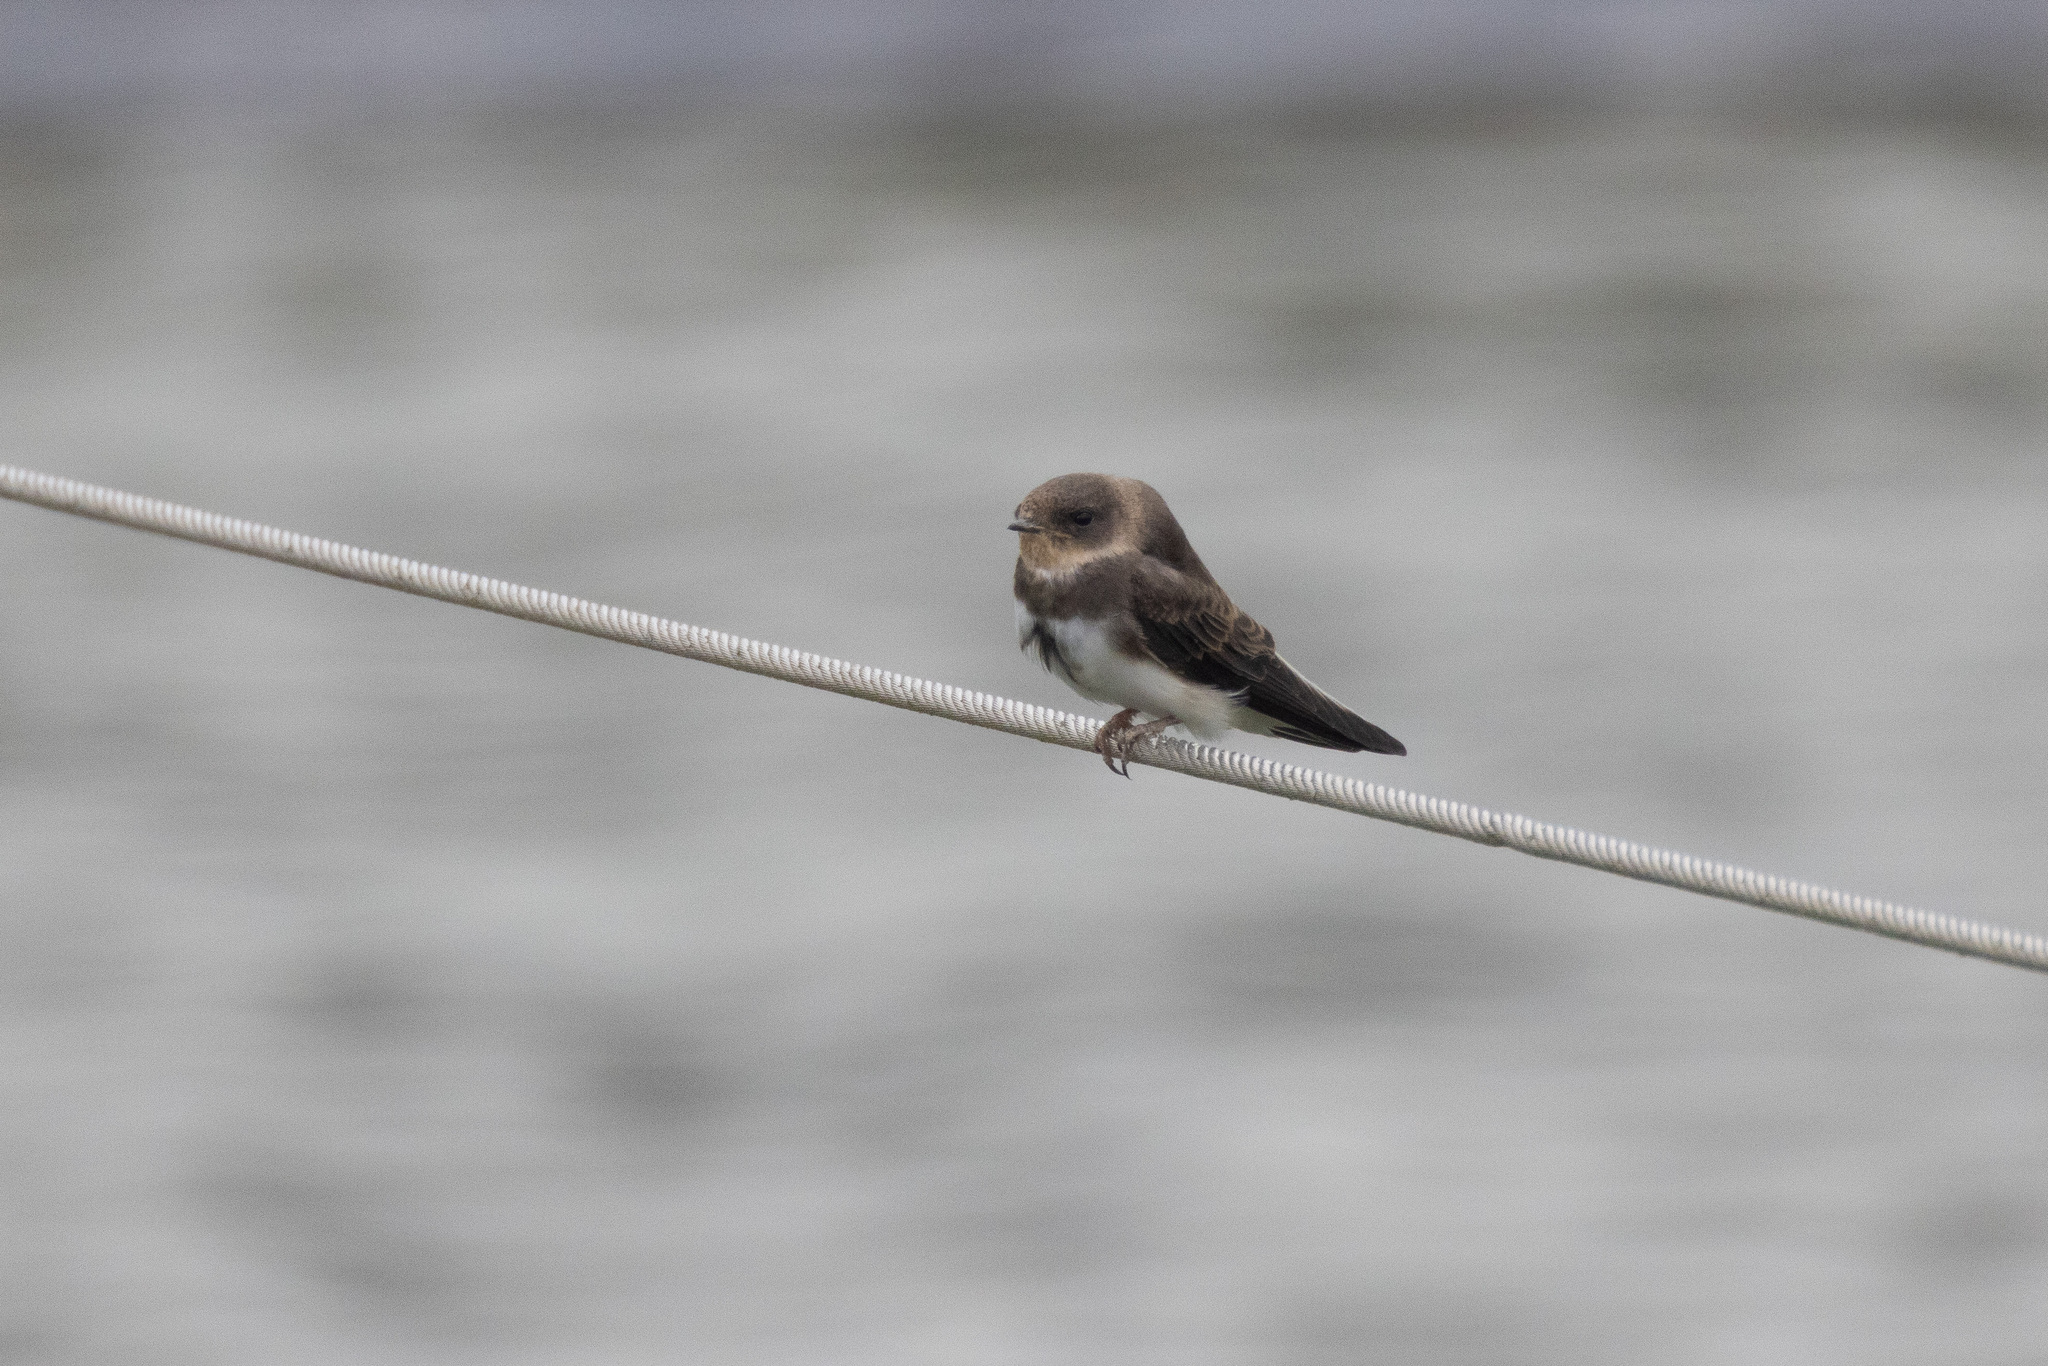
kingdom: Animalia
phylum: Chordata
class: Aves
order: Passeriformes
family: Hirundinidae
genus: Riparia
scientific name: Riparia riparia
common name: Sand martin
